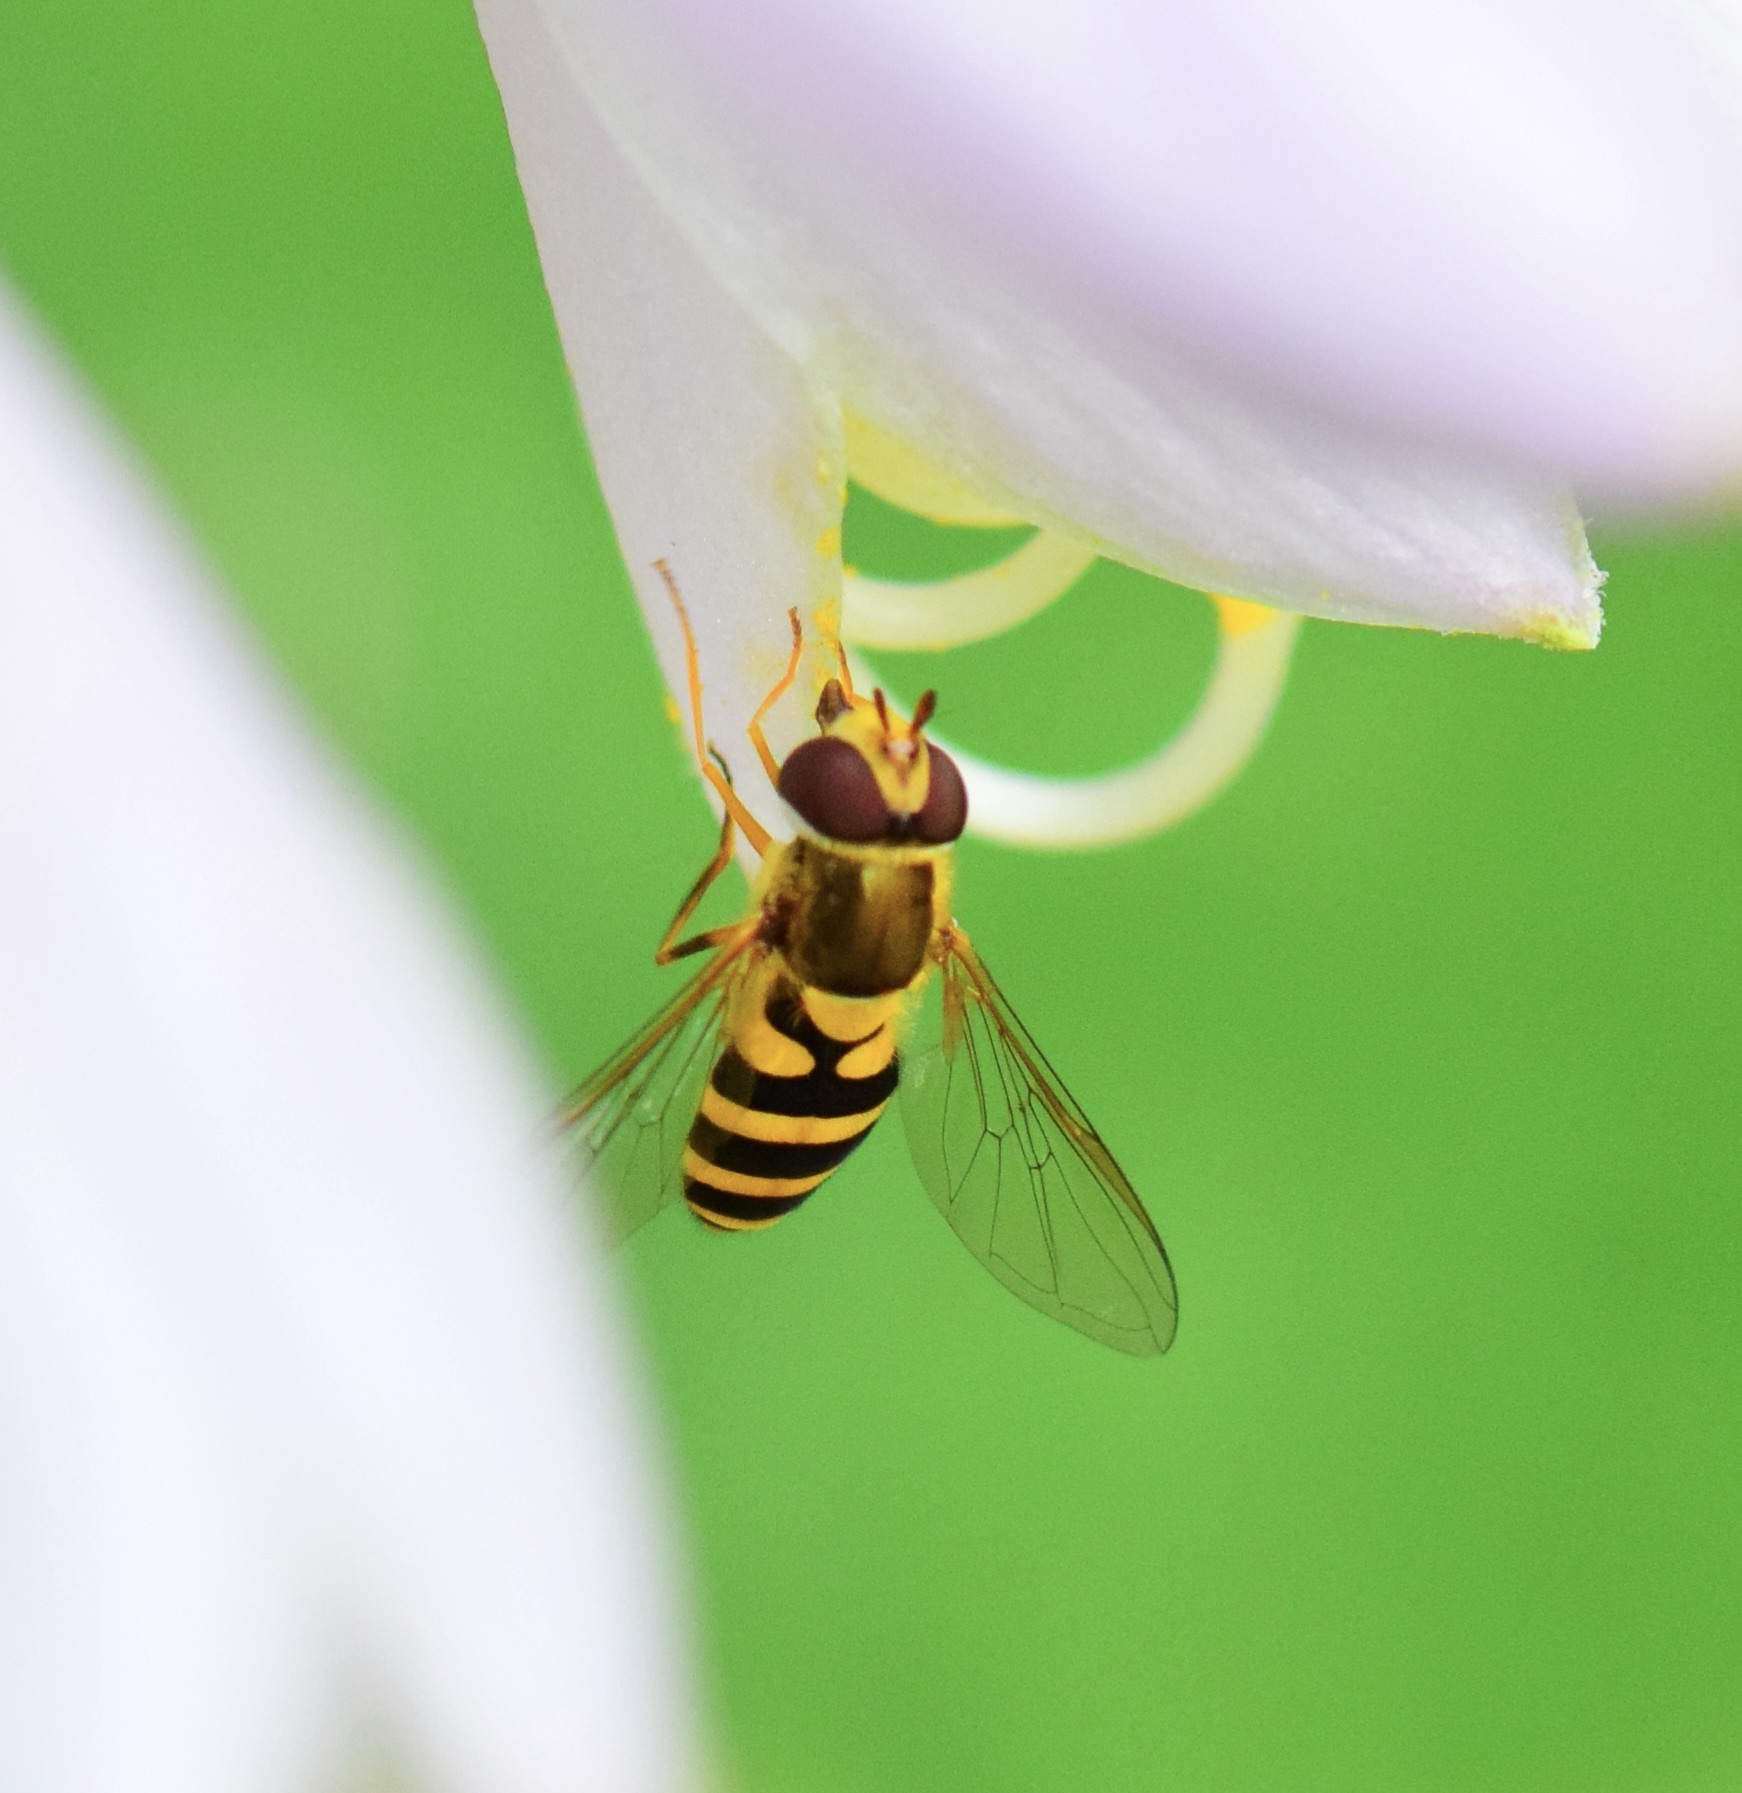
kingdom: Animalia
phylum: Arthropoda
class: Insecta
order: Diptera
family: Syrphidae
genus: Syrphus
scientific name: Syrphus rectus
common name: Yellow-legged flower fly
